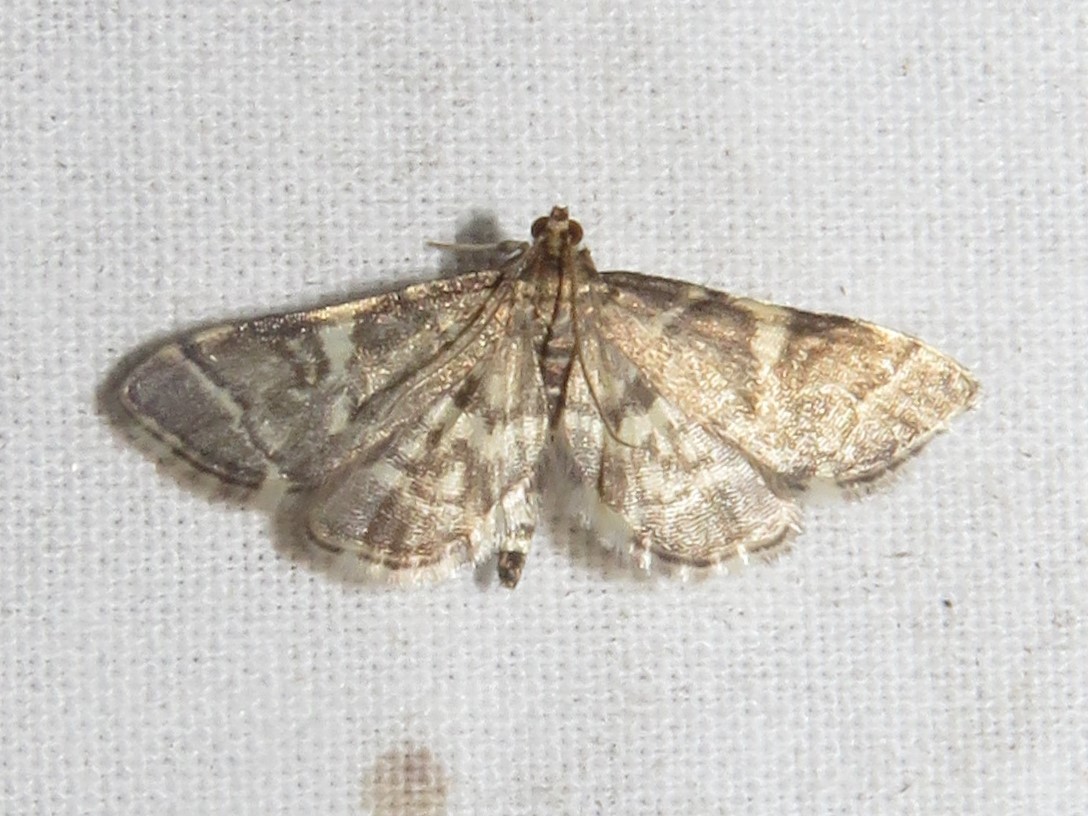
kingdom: Animalia
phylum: Arthropoda
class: Insecta
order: Lepidoptera
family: Crambidae
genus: Anageshna
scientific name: Anageshna primordialis
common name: Yellow-spotted webworm moth
